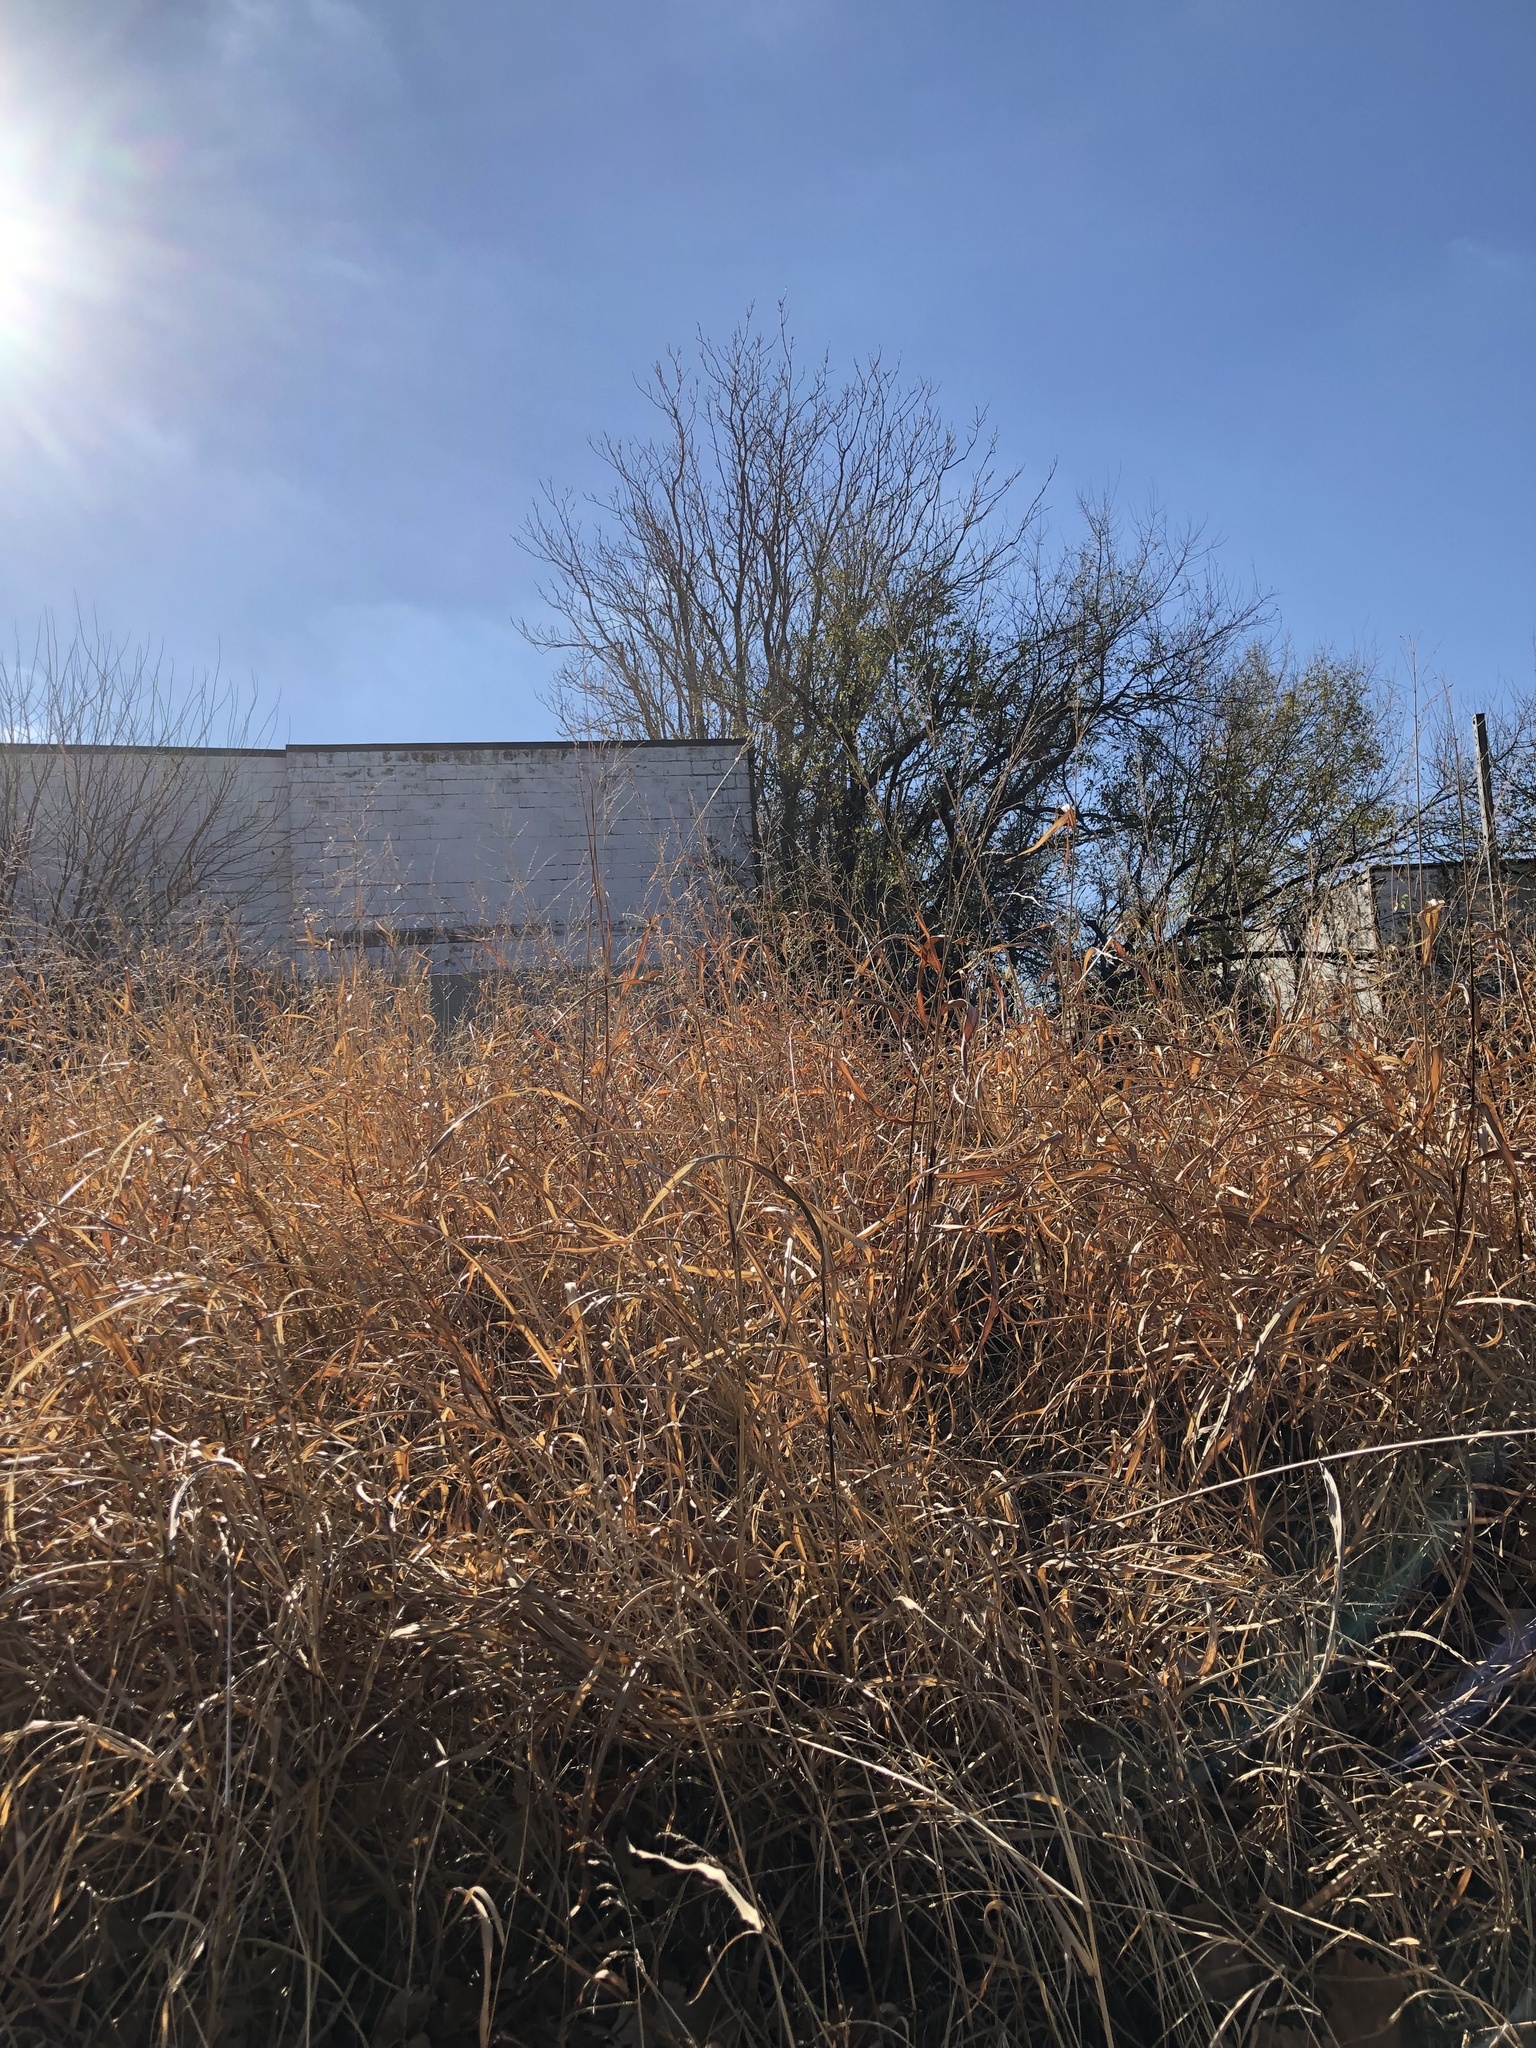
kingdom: Plantae
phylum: Tracheophyta
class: Liliopsida
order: Poales
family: Poaceae
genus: Sorghum
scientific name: Sorghum halepense
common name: Johnson-grass
